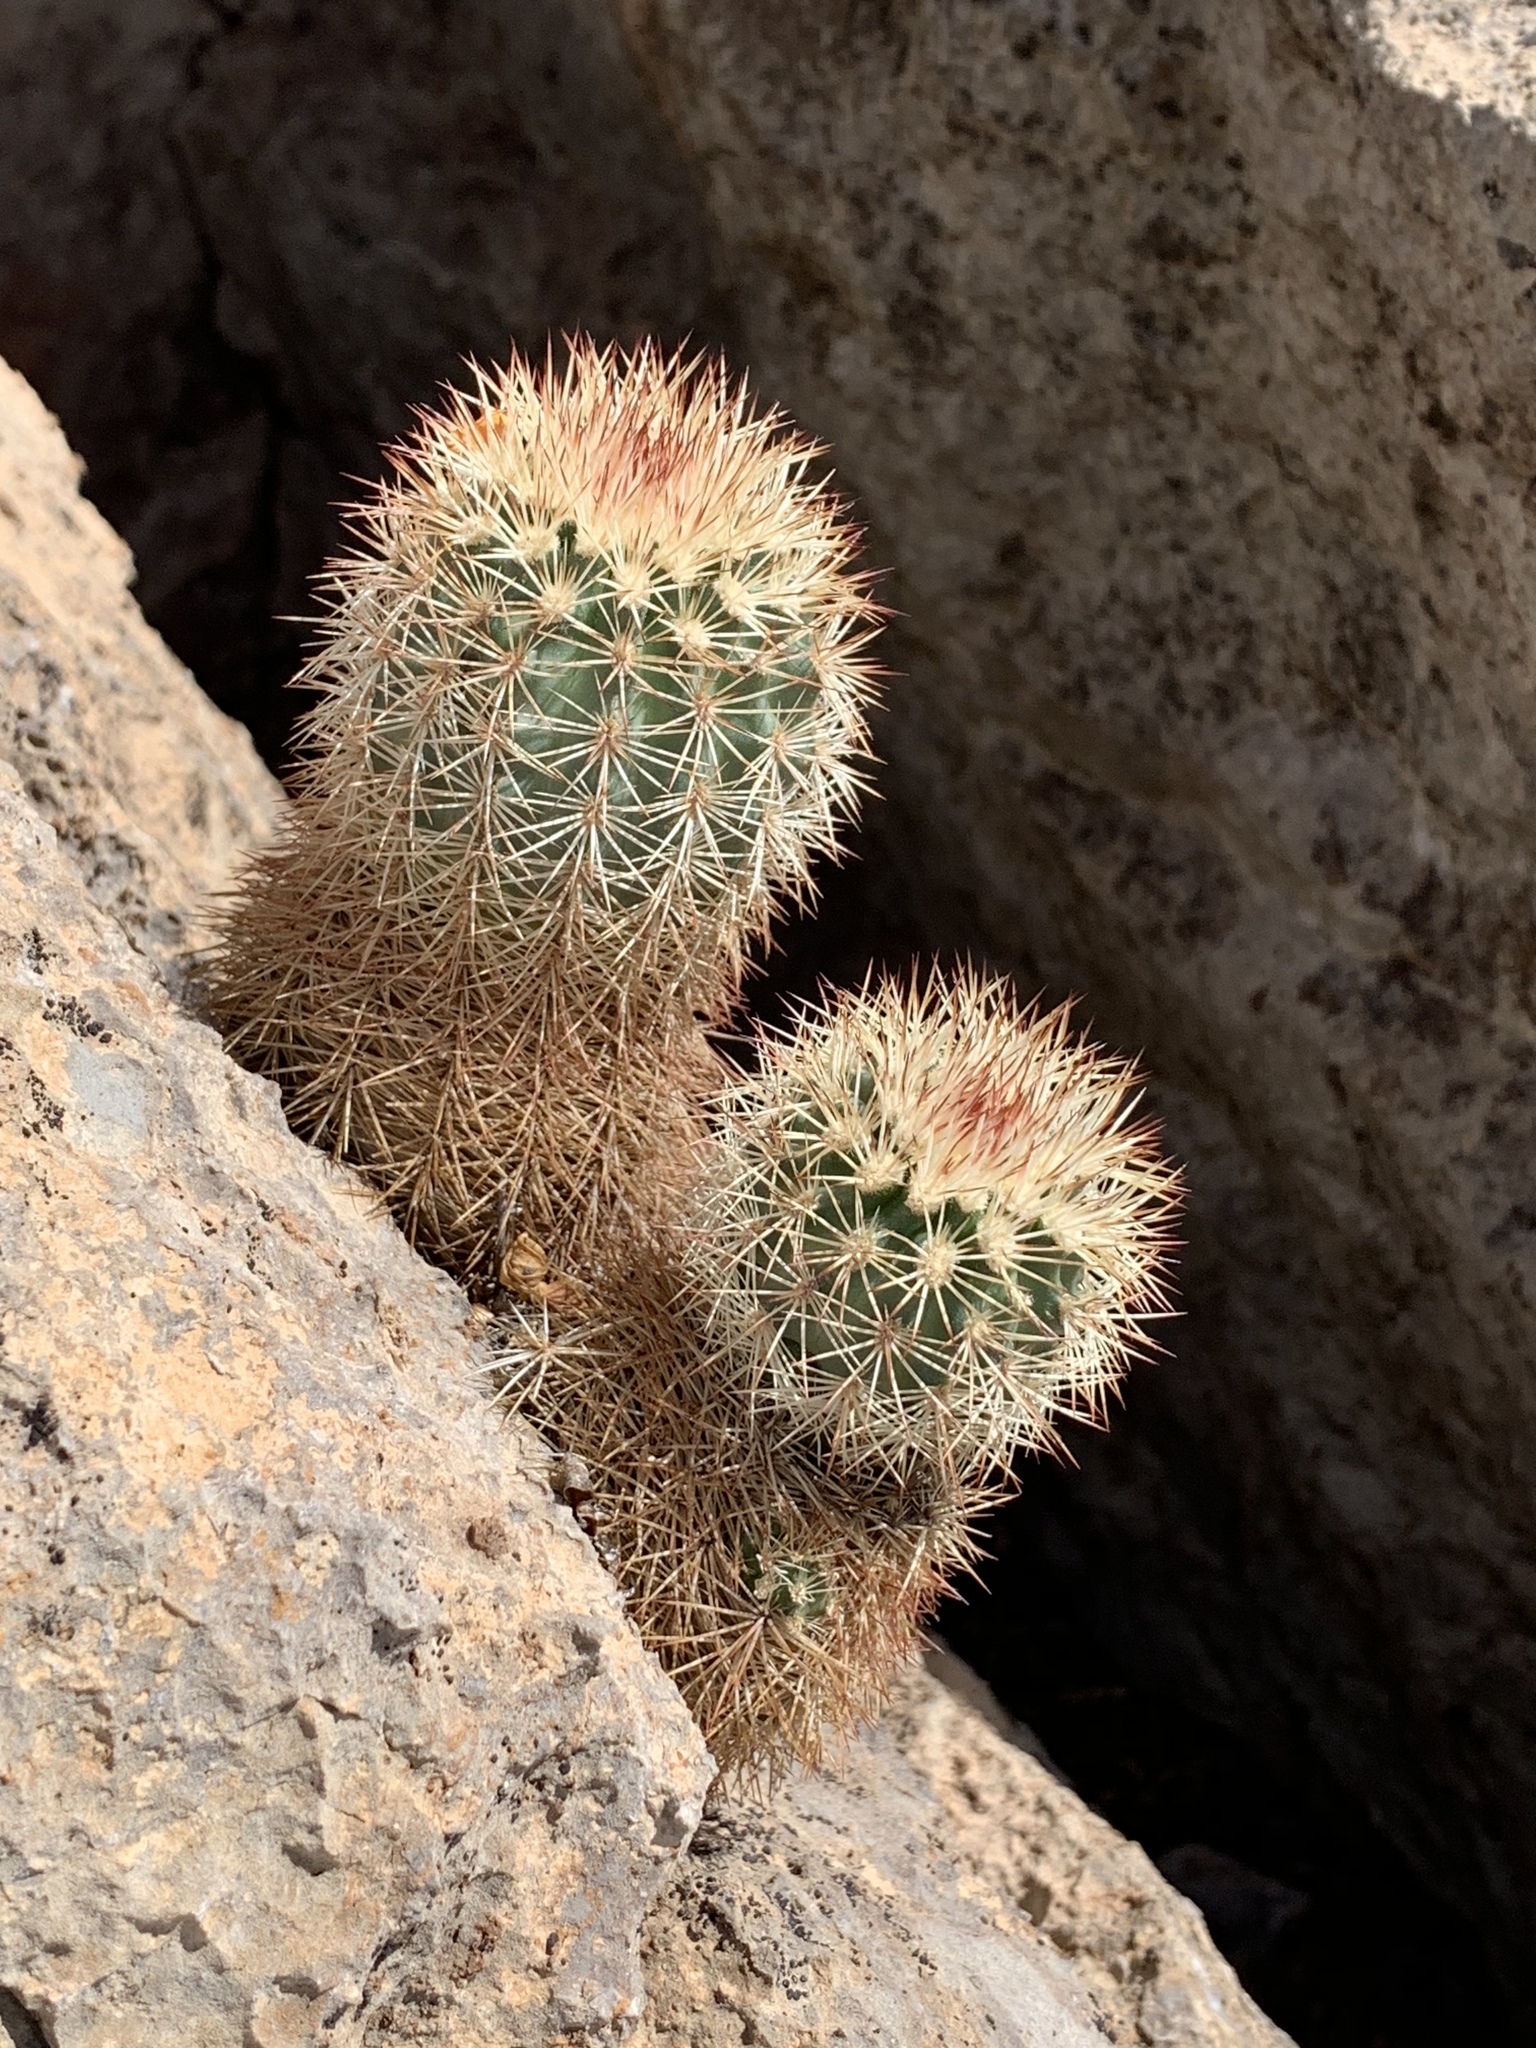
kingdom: Plantae
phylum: Tracheophyta
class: Magnoliopsida
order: Caryophyllales
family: Cactaceae
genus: Echinocereus
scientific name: Echinocereus dasyacanthus
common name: Spiny hedgehog cactus
